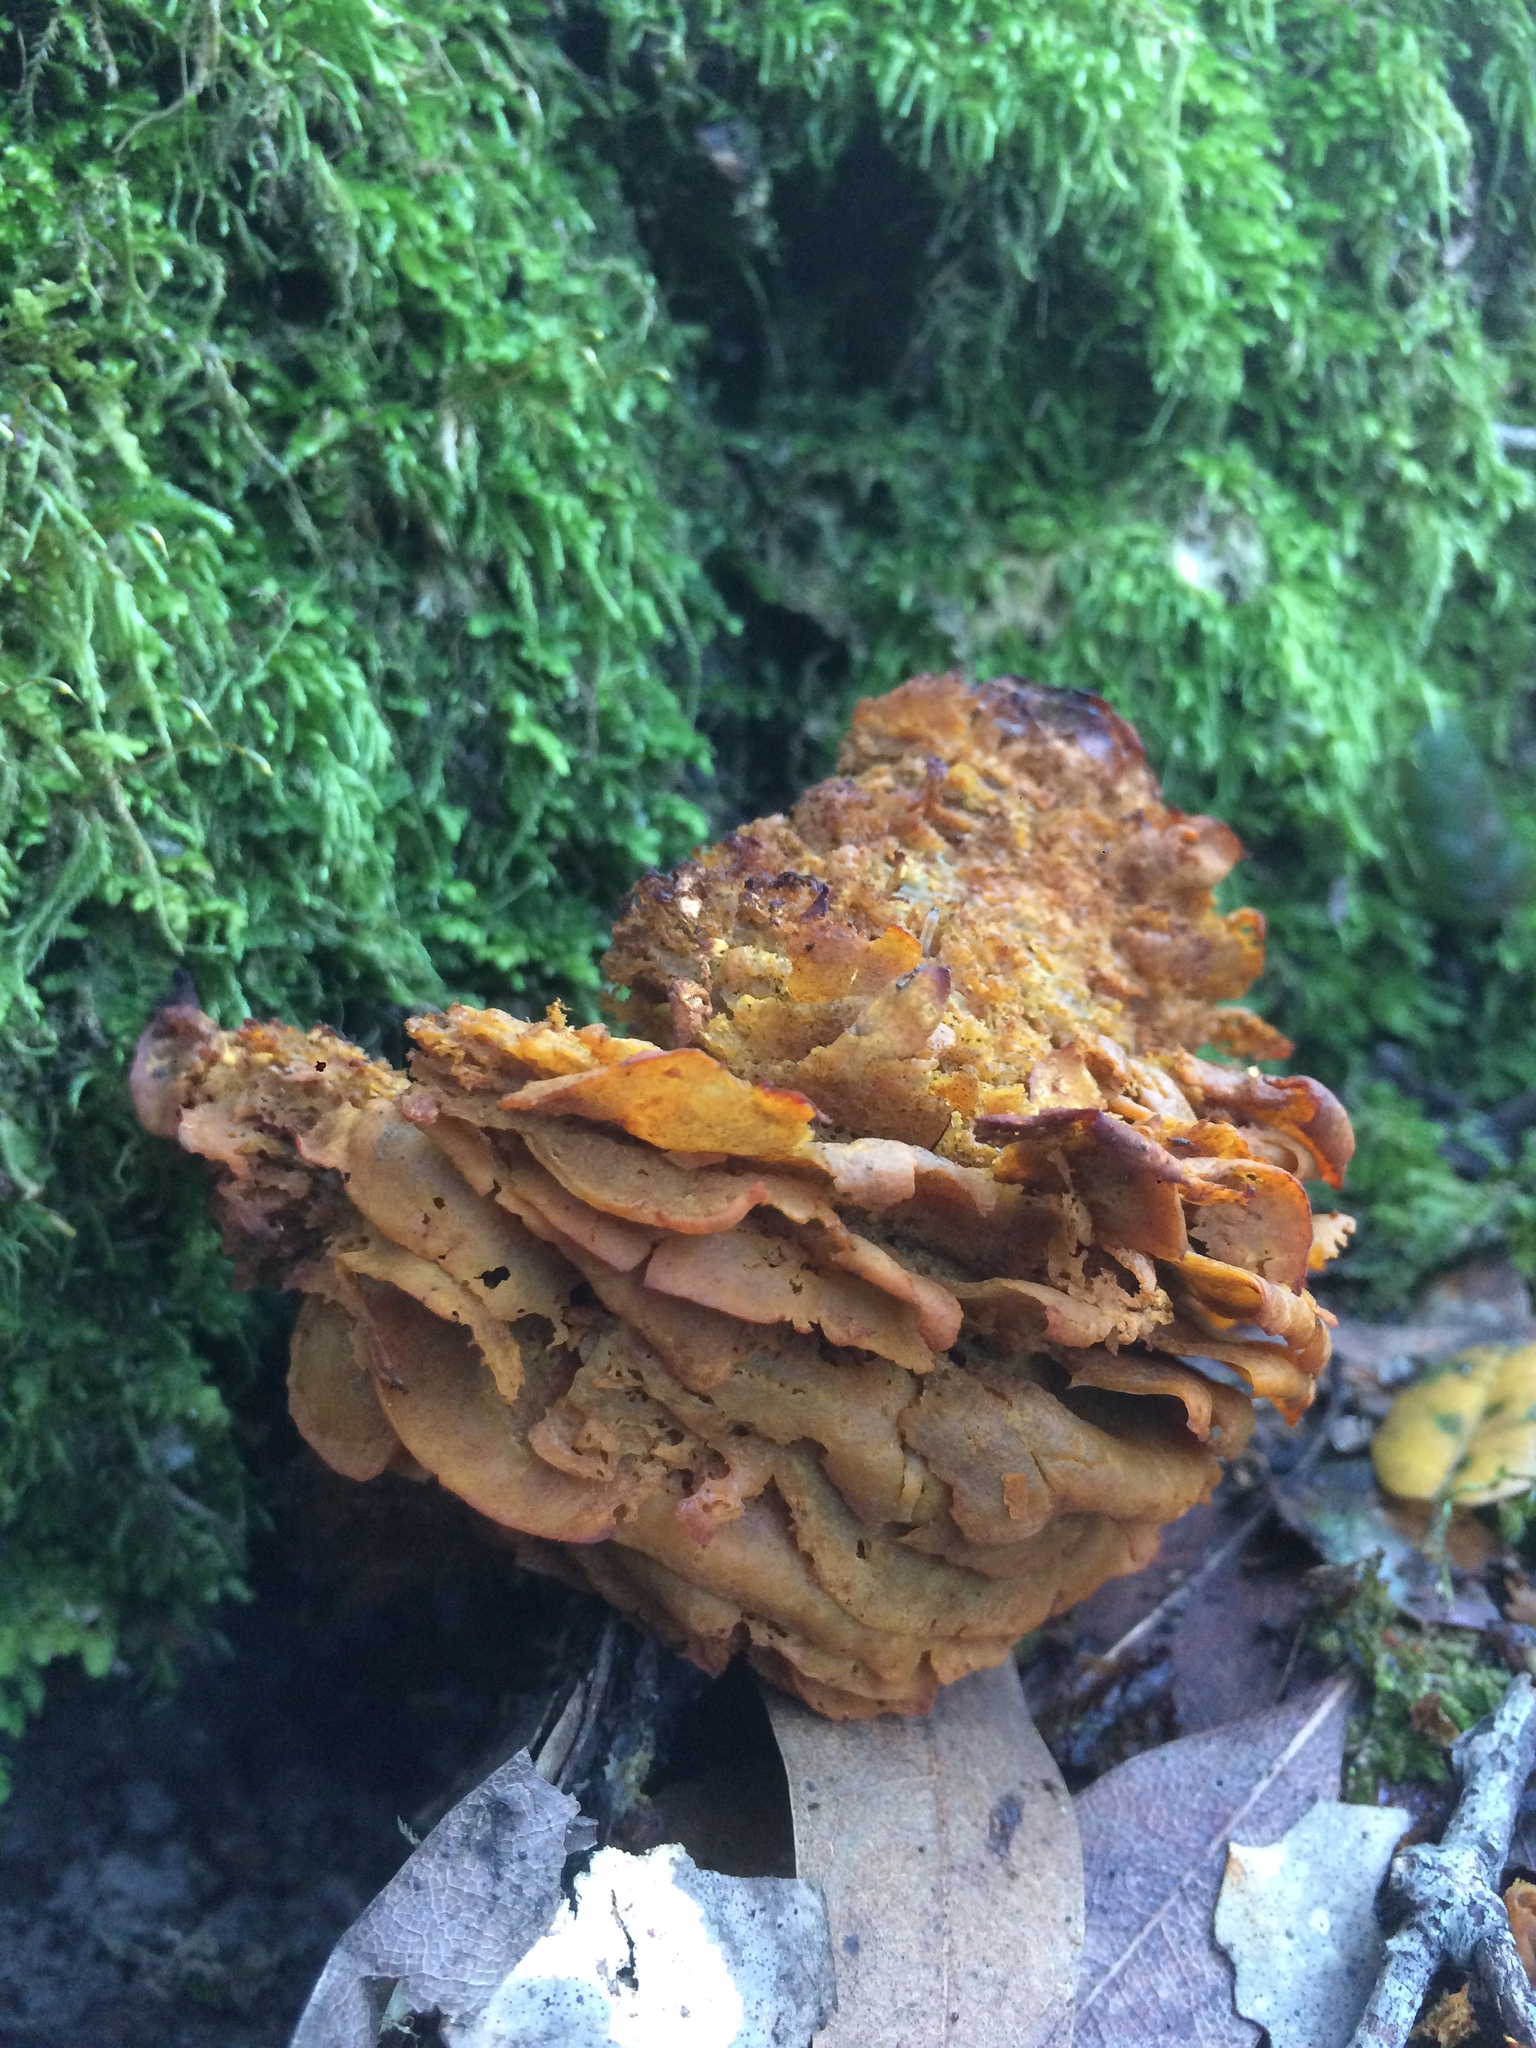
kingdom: Fungi
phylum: Basidiomycota
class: Agaricomycetes
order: Agaricales
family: Omphalotaceae
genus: Omphalotus
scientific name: Omphalotus olivascens
